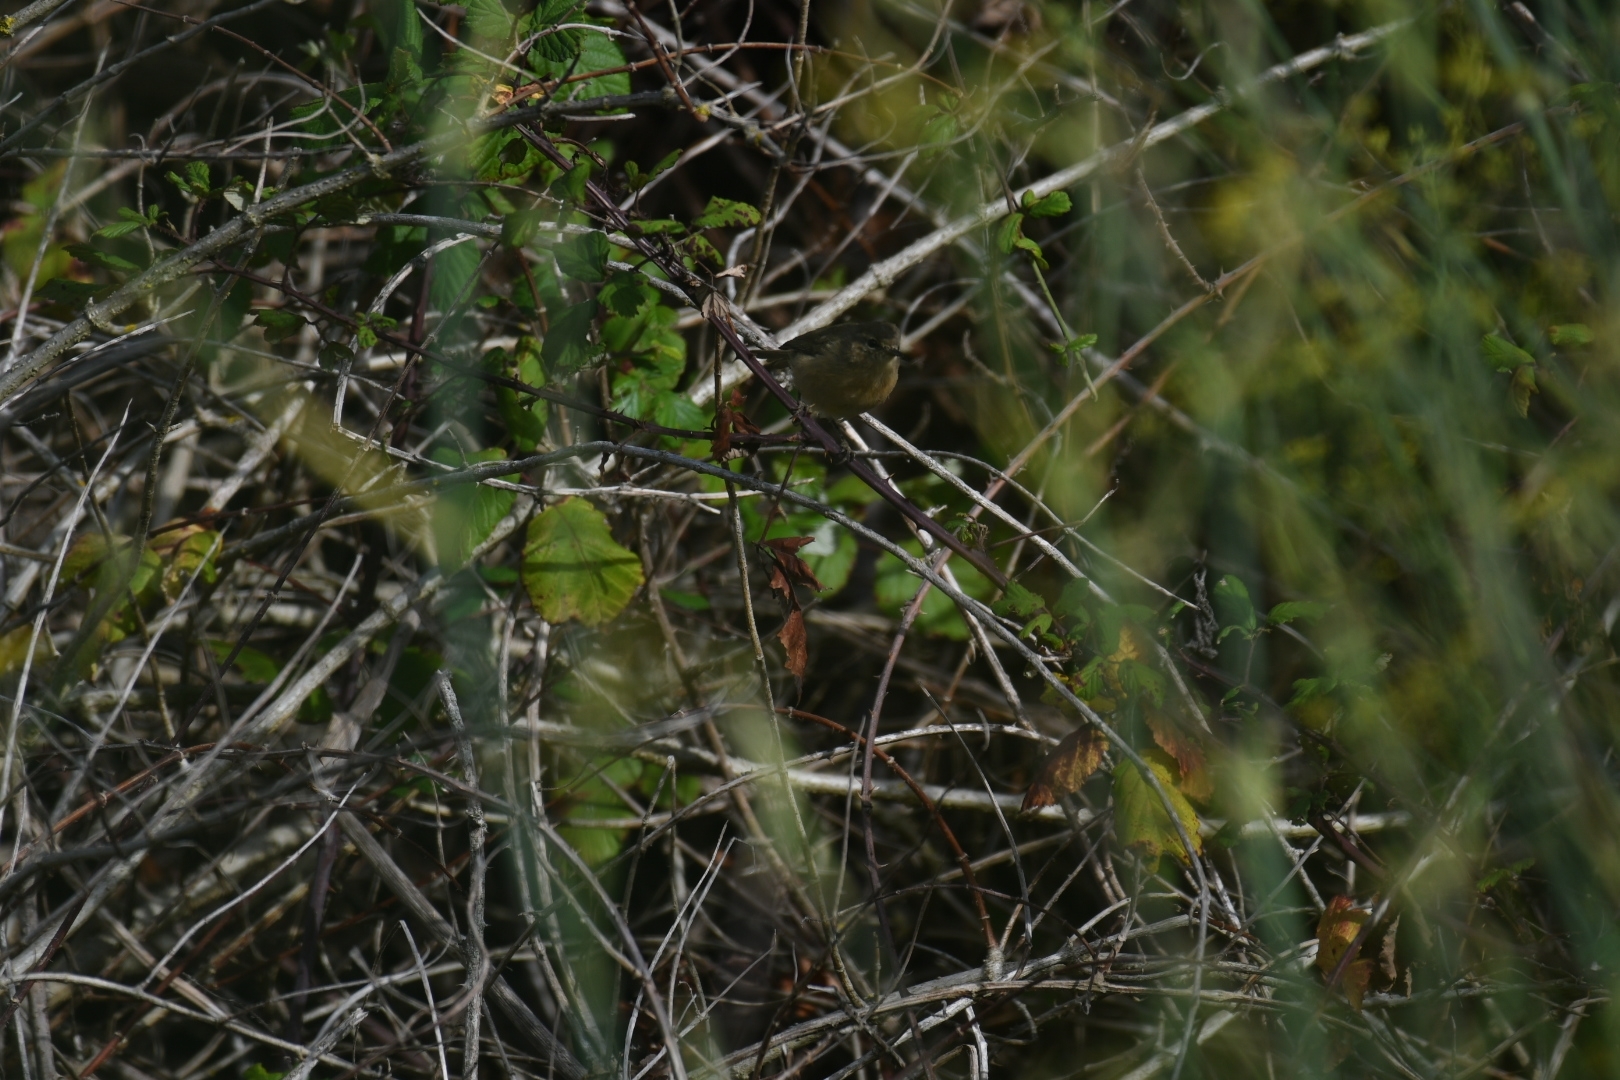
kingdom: Animalia
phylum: Chordata
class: Aves
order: Passeriformes
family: Phylloscopidae
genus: Phylloscopus
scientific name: Phylloscopus canariensis
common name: Canary islands chiffchaff
